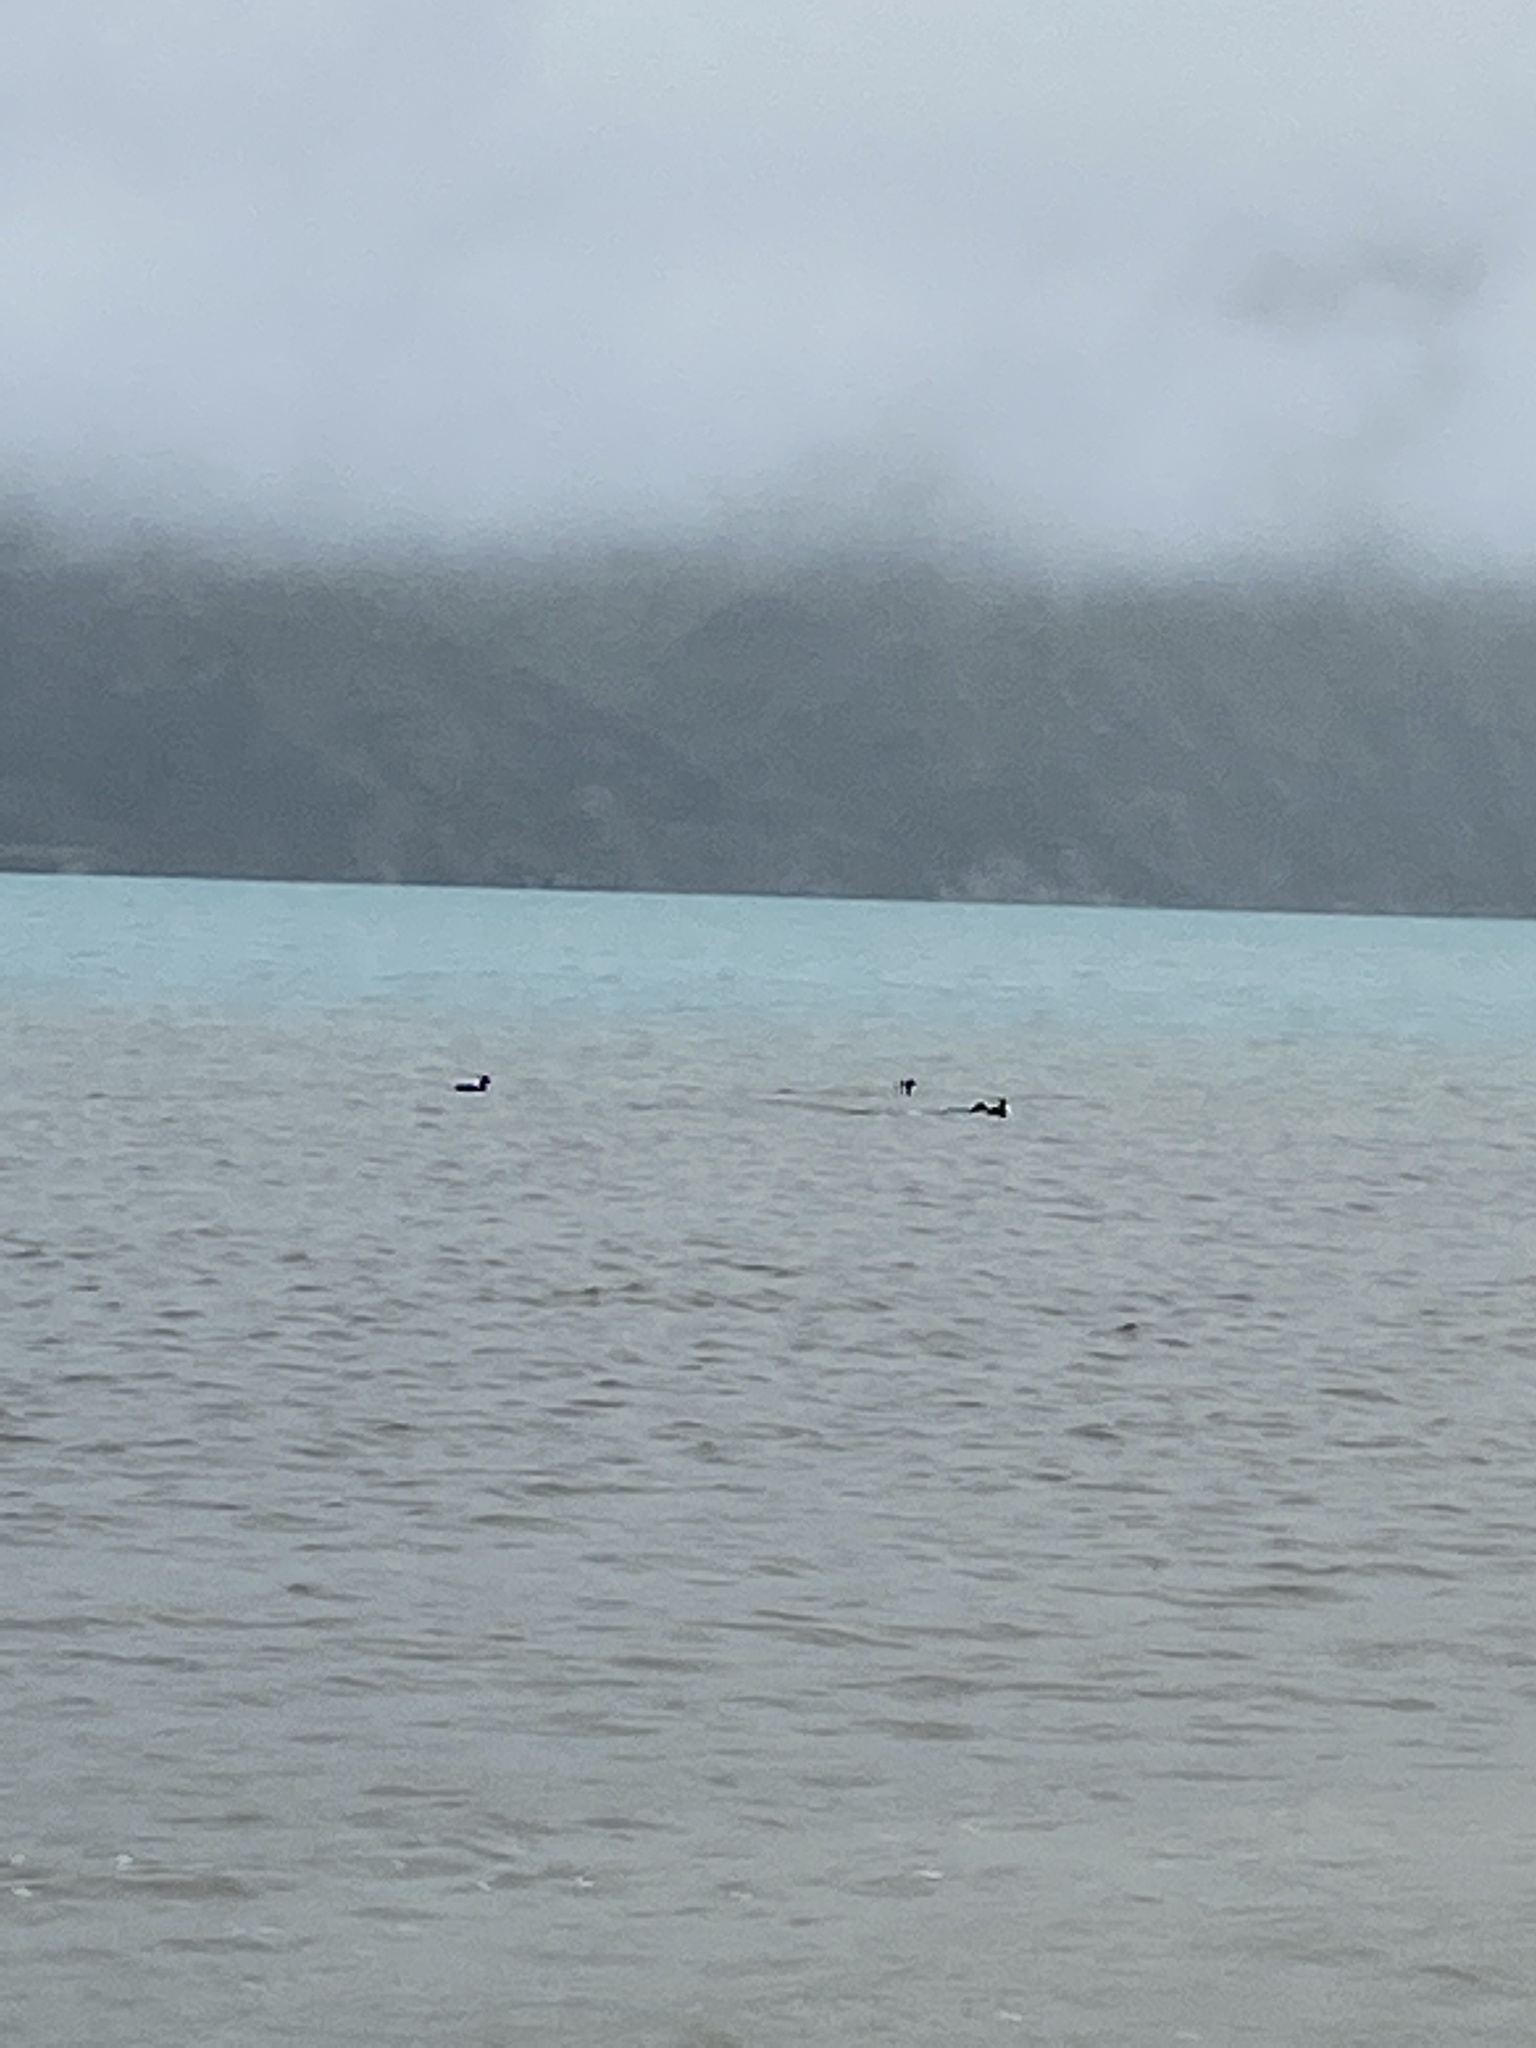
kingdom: Animalia
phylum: Chordata
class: Aves
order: Anseriformes
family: Anatidae
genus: Aythya
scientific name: Aythya novaeseelandiae
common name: New zealand scaup
